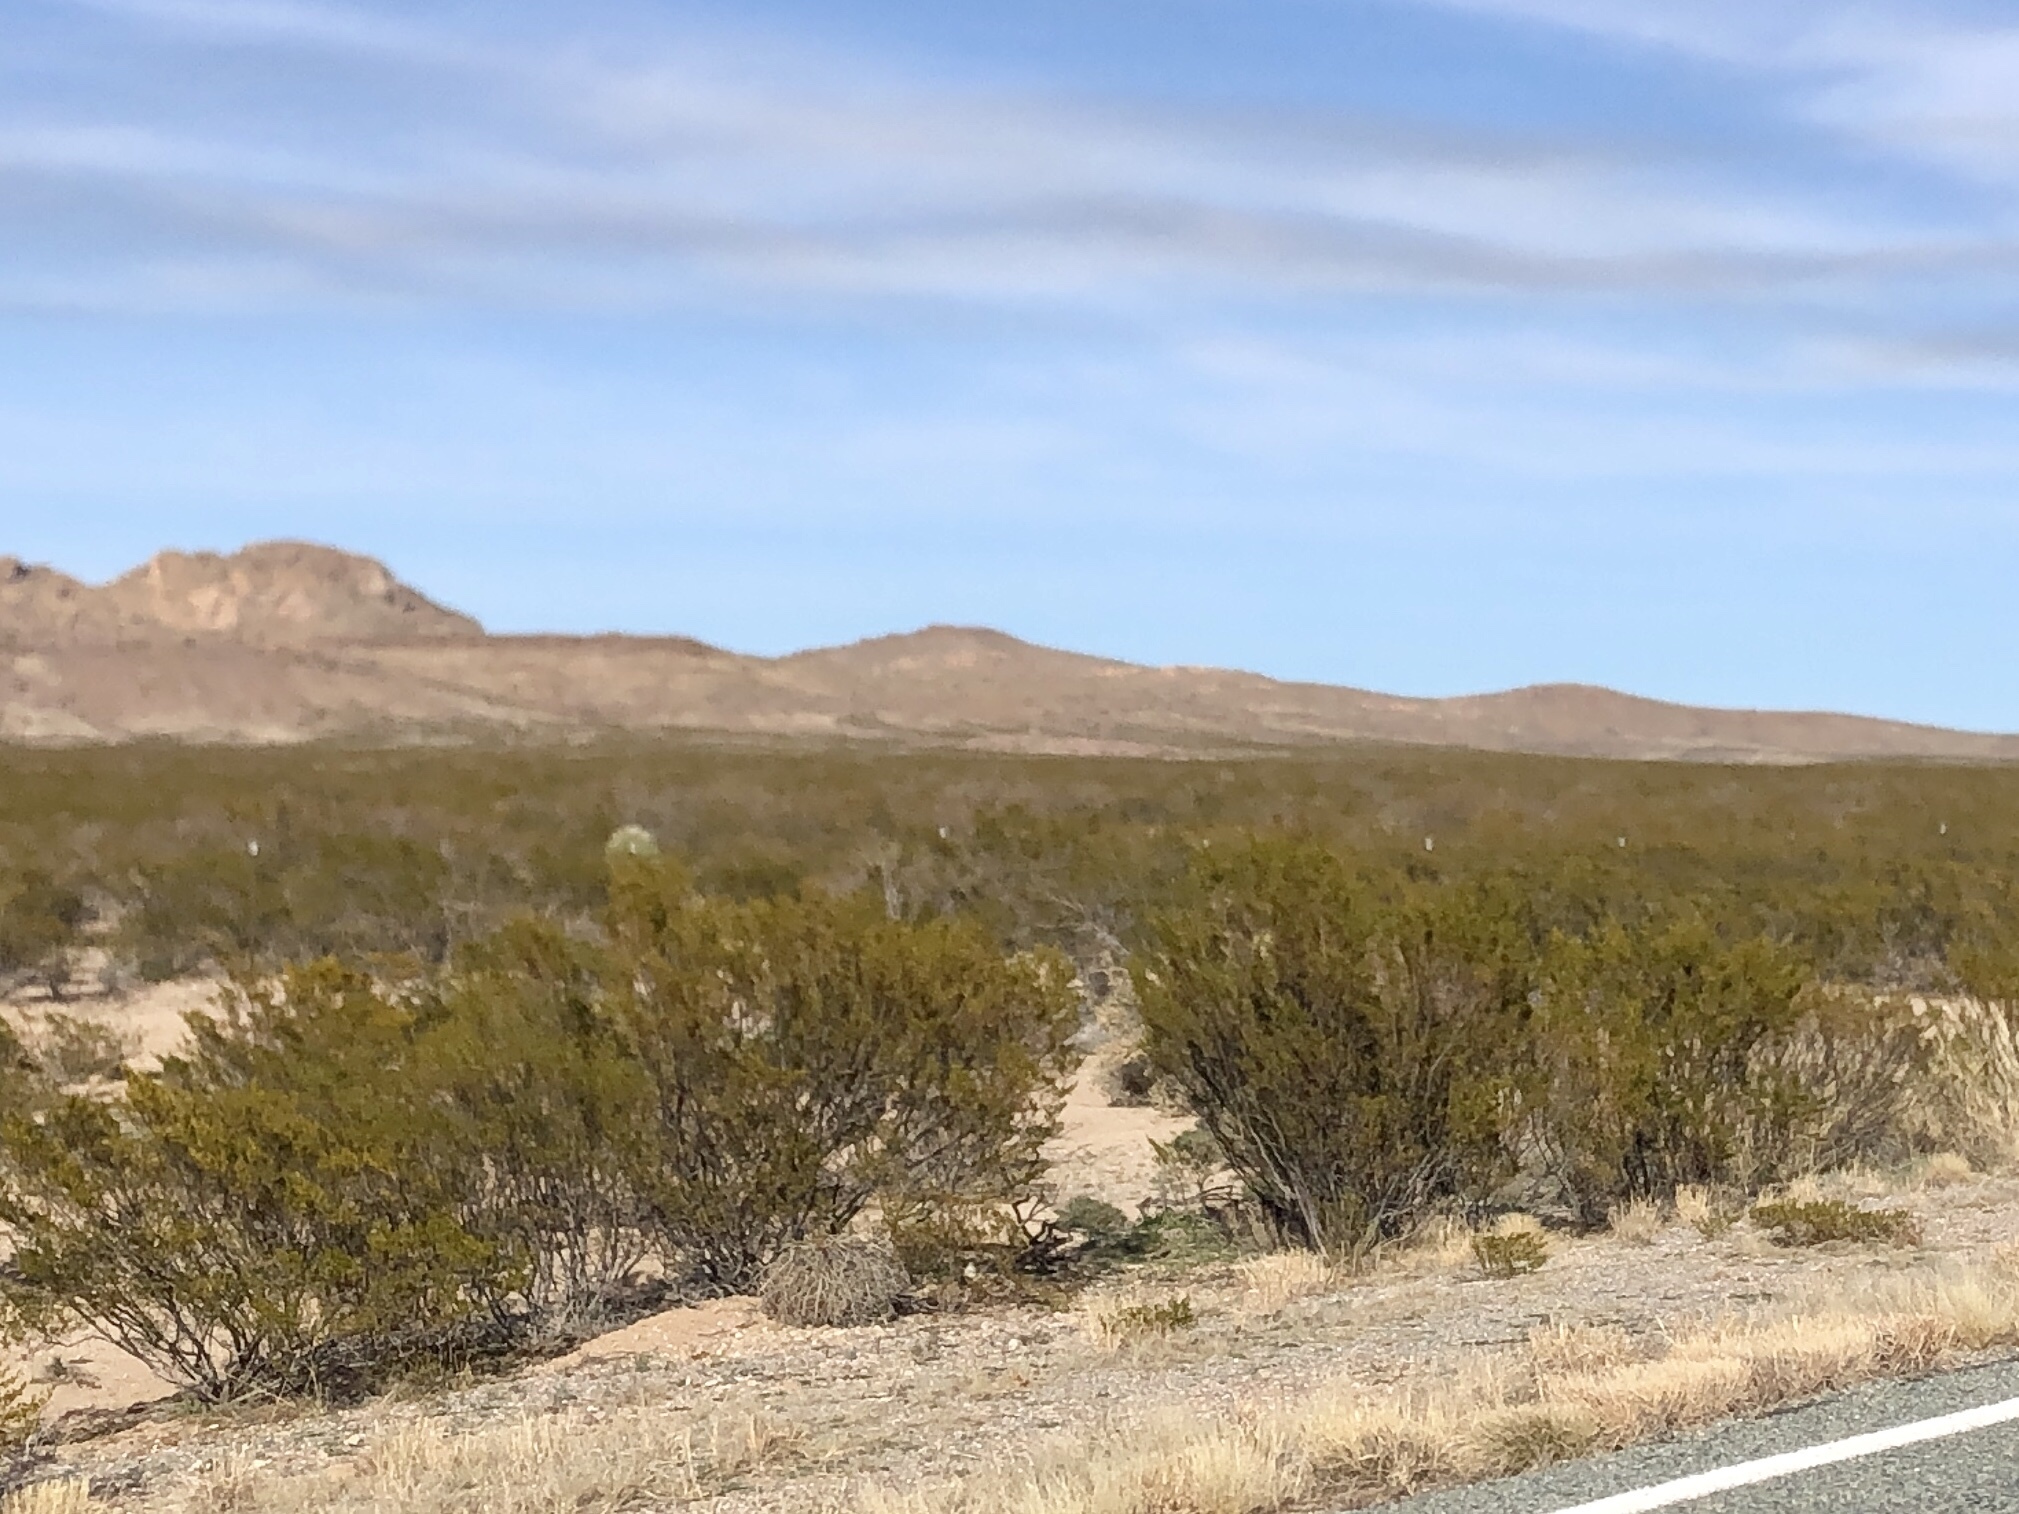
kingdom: Plantae
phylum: Tracheophyta
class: Magnoliopsida
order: Zygophyllales
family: Zygophyllaceae
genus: Larrea
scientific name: Larrea tridentata
